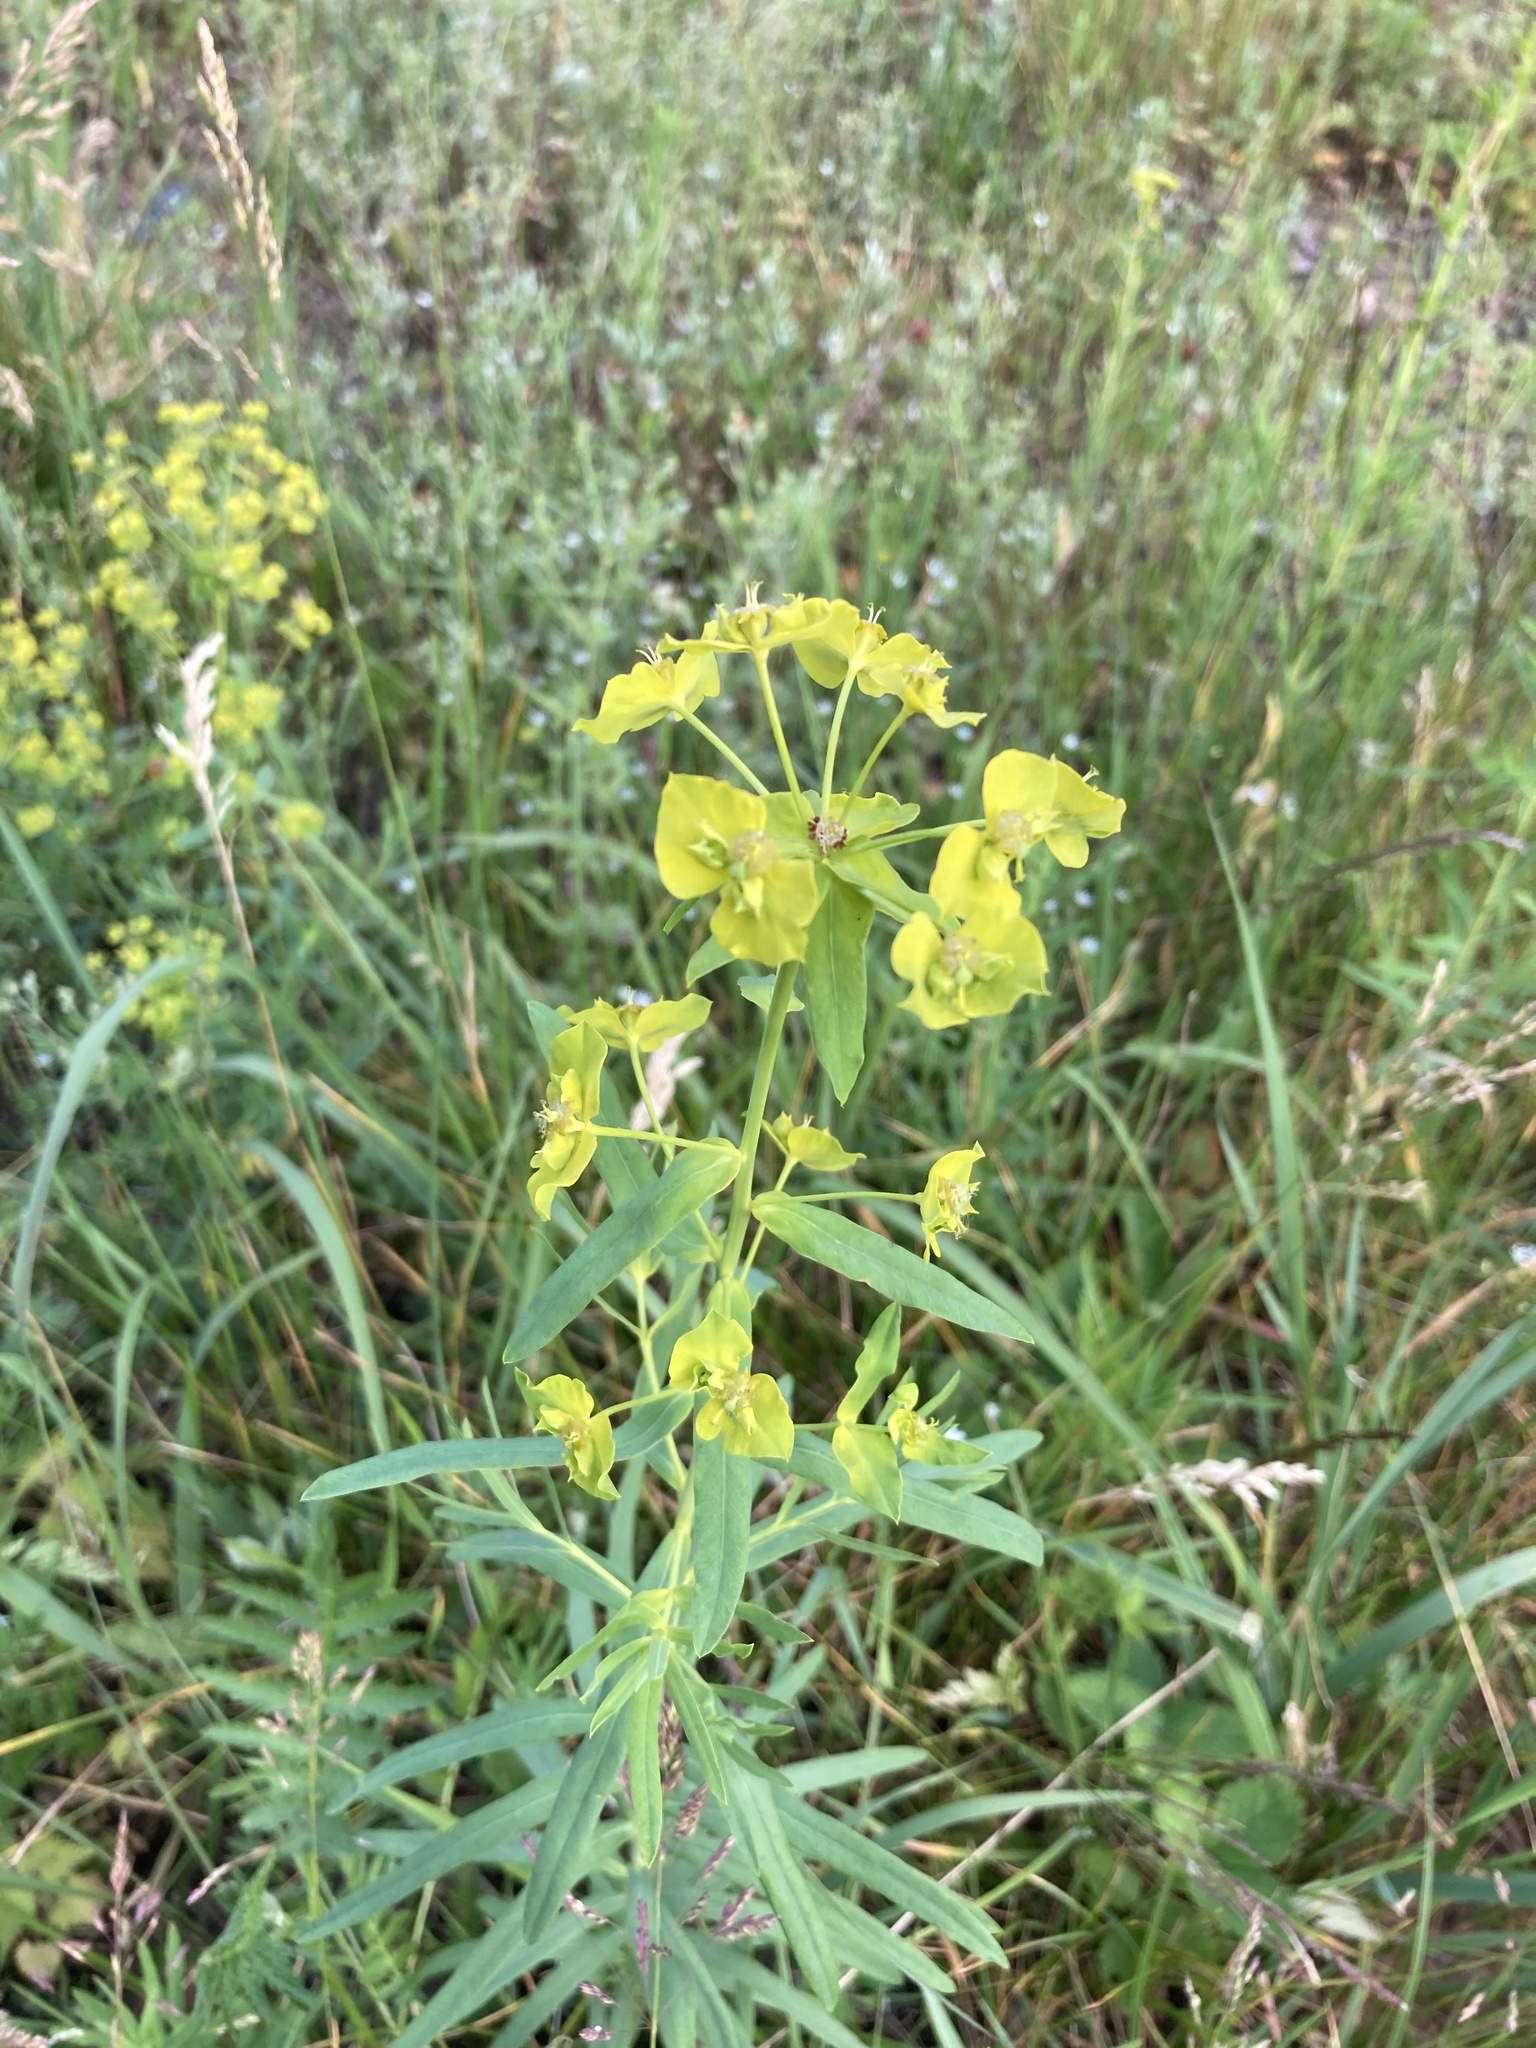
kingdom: Plantae
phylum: Tracheophyta
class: Magnoliopsida
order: Malpighiales
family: Euphorbiaceae
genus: Euphorbia
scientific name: Euphorbia virgata
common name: Leafy spurge
